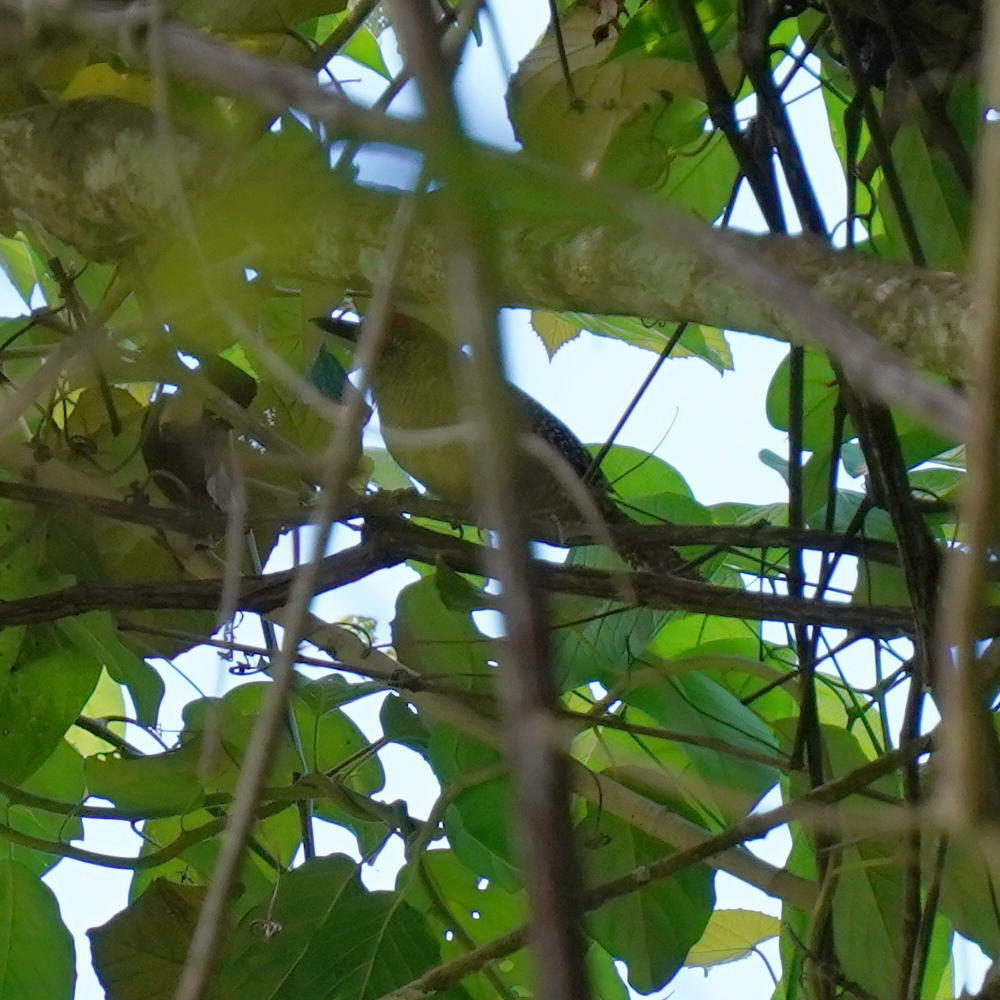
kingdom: Animalia
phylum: Chordata
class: Aves
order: Passeriformes
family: Thamnophilidae
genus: Cymbilaimus
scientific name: Cymbilaimus lineatus
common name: Fasciated antshrike
